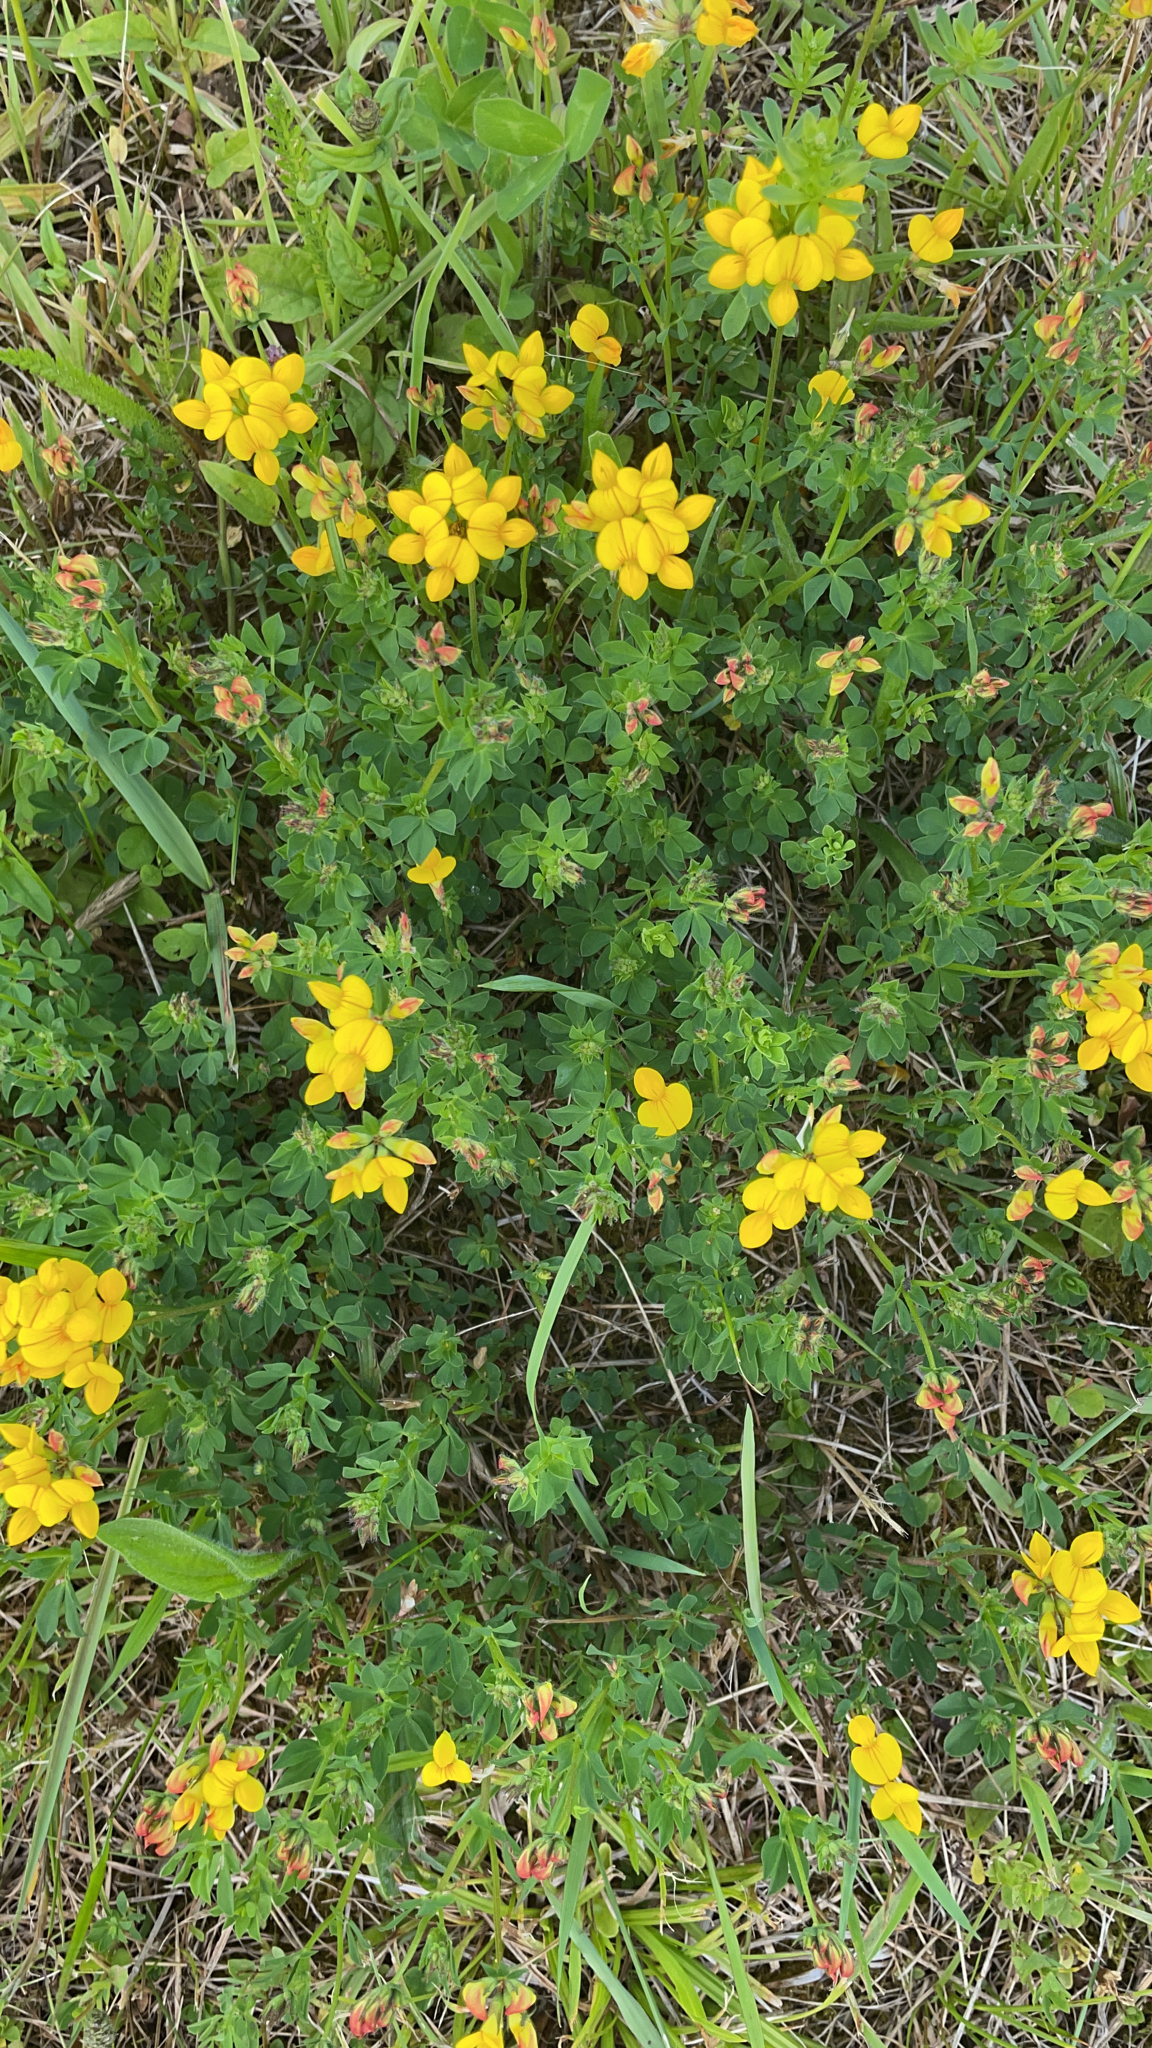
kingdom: Plantae
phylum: Tracheophyta
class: Magnoliopsida
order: Fabales
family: Fabaceae
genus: Lotus
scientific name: Lotus corniculatus
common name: Common bird's-foot-trefoil
